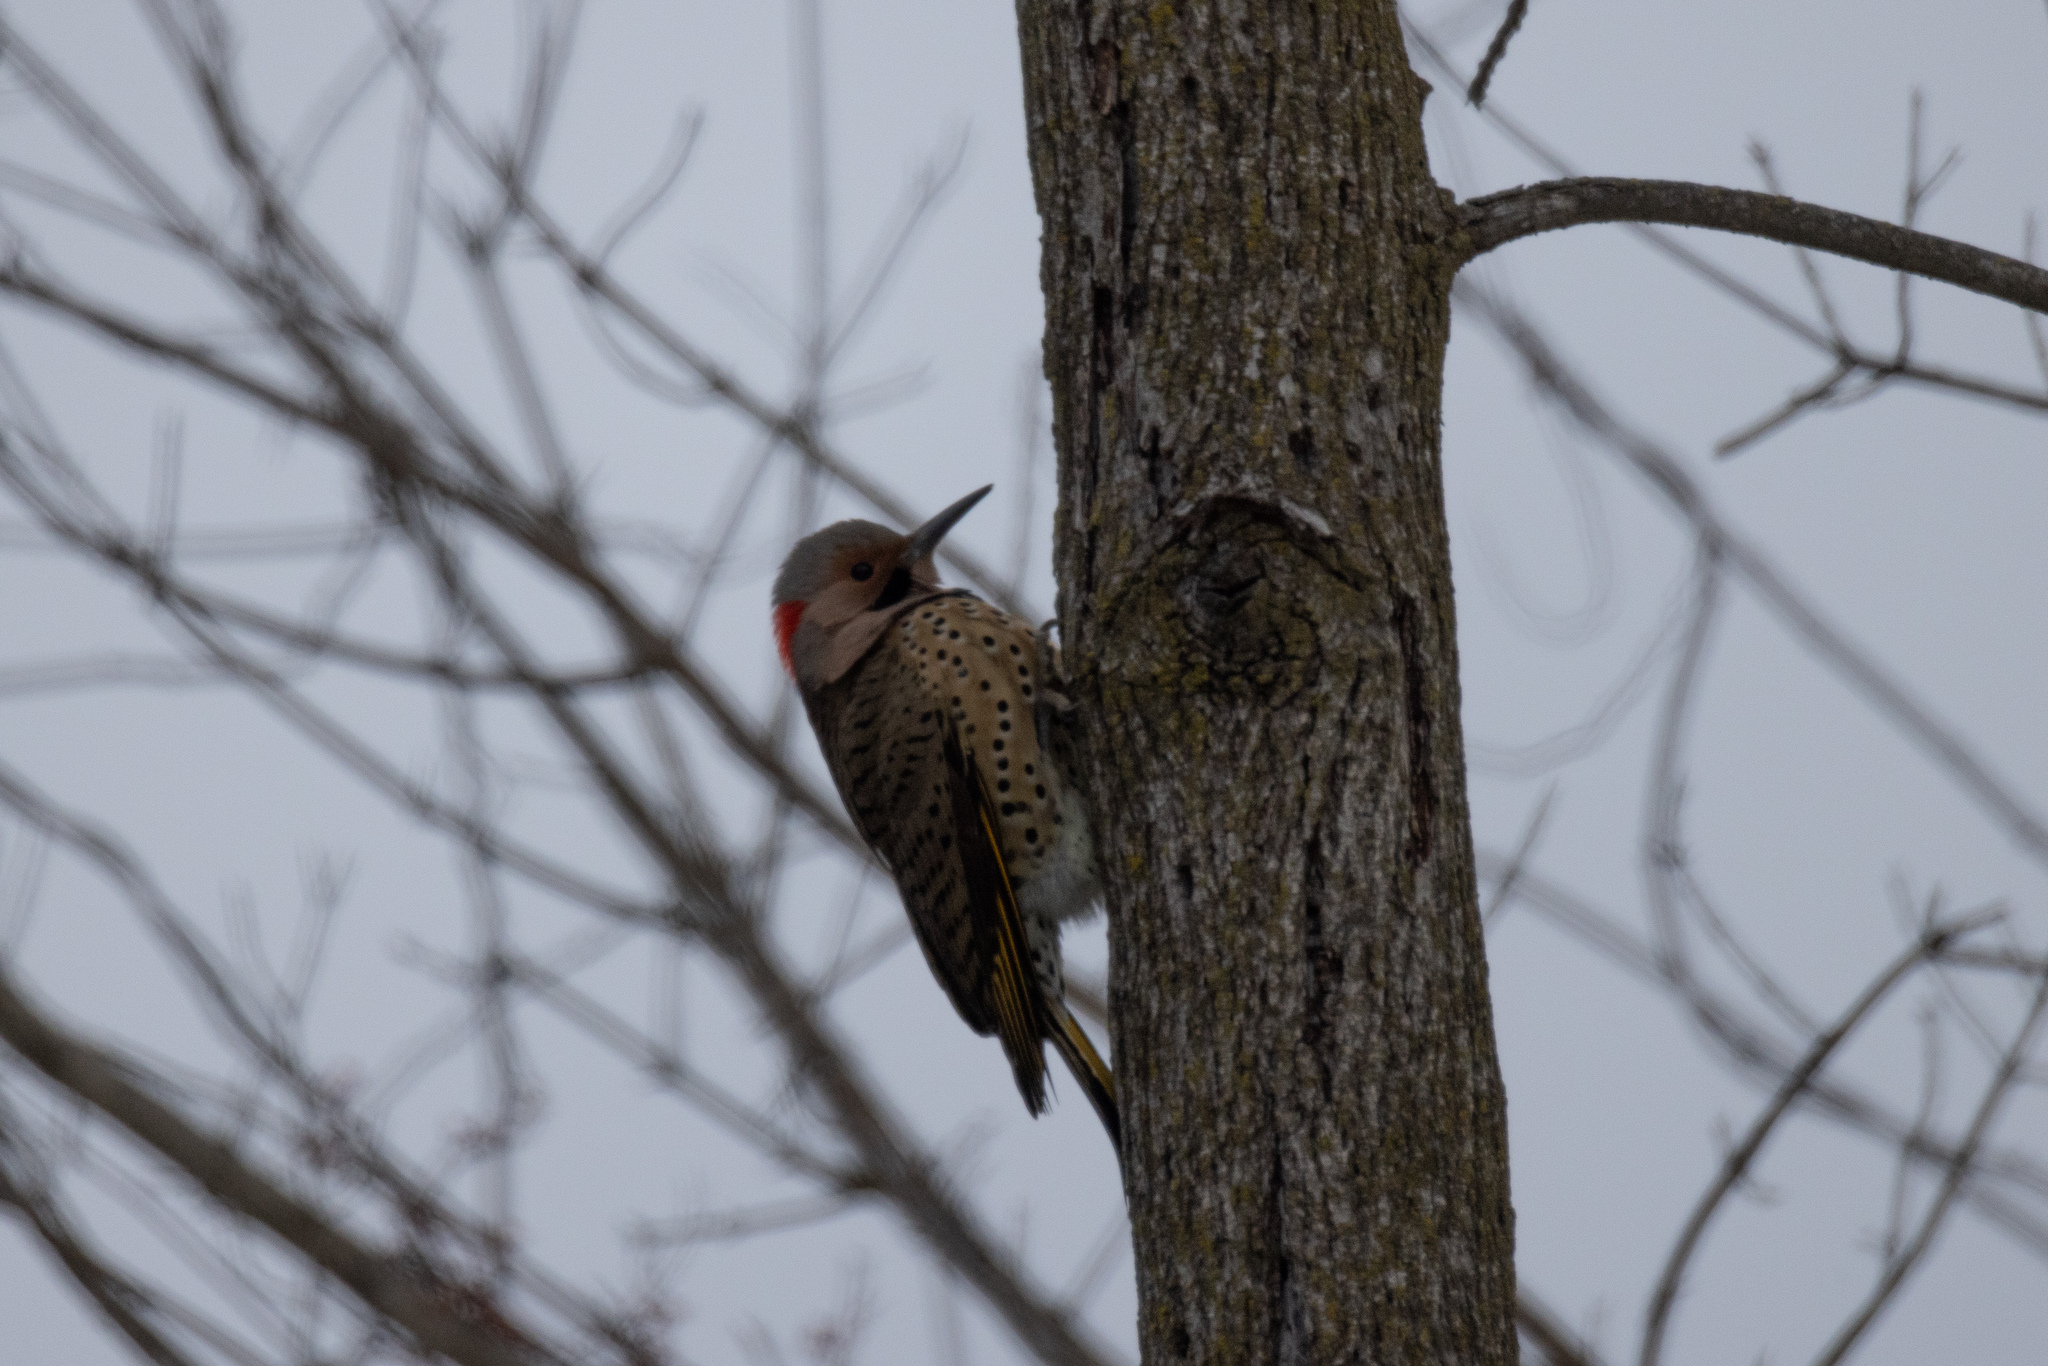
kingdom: Animalia
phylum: Chordata
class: Aves
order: Piciformes
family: Picidae
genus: Colaptes
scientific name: Colaptes auratus
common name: Northern flicker
